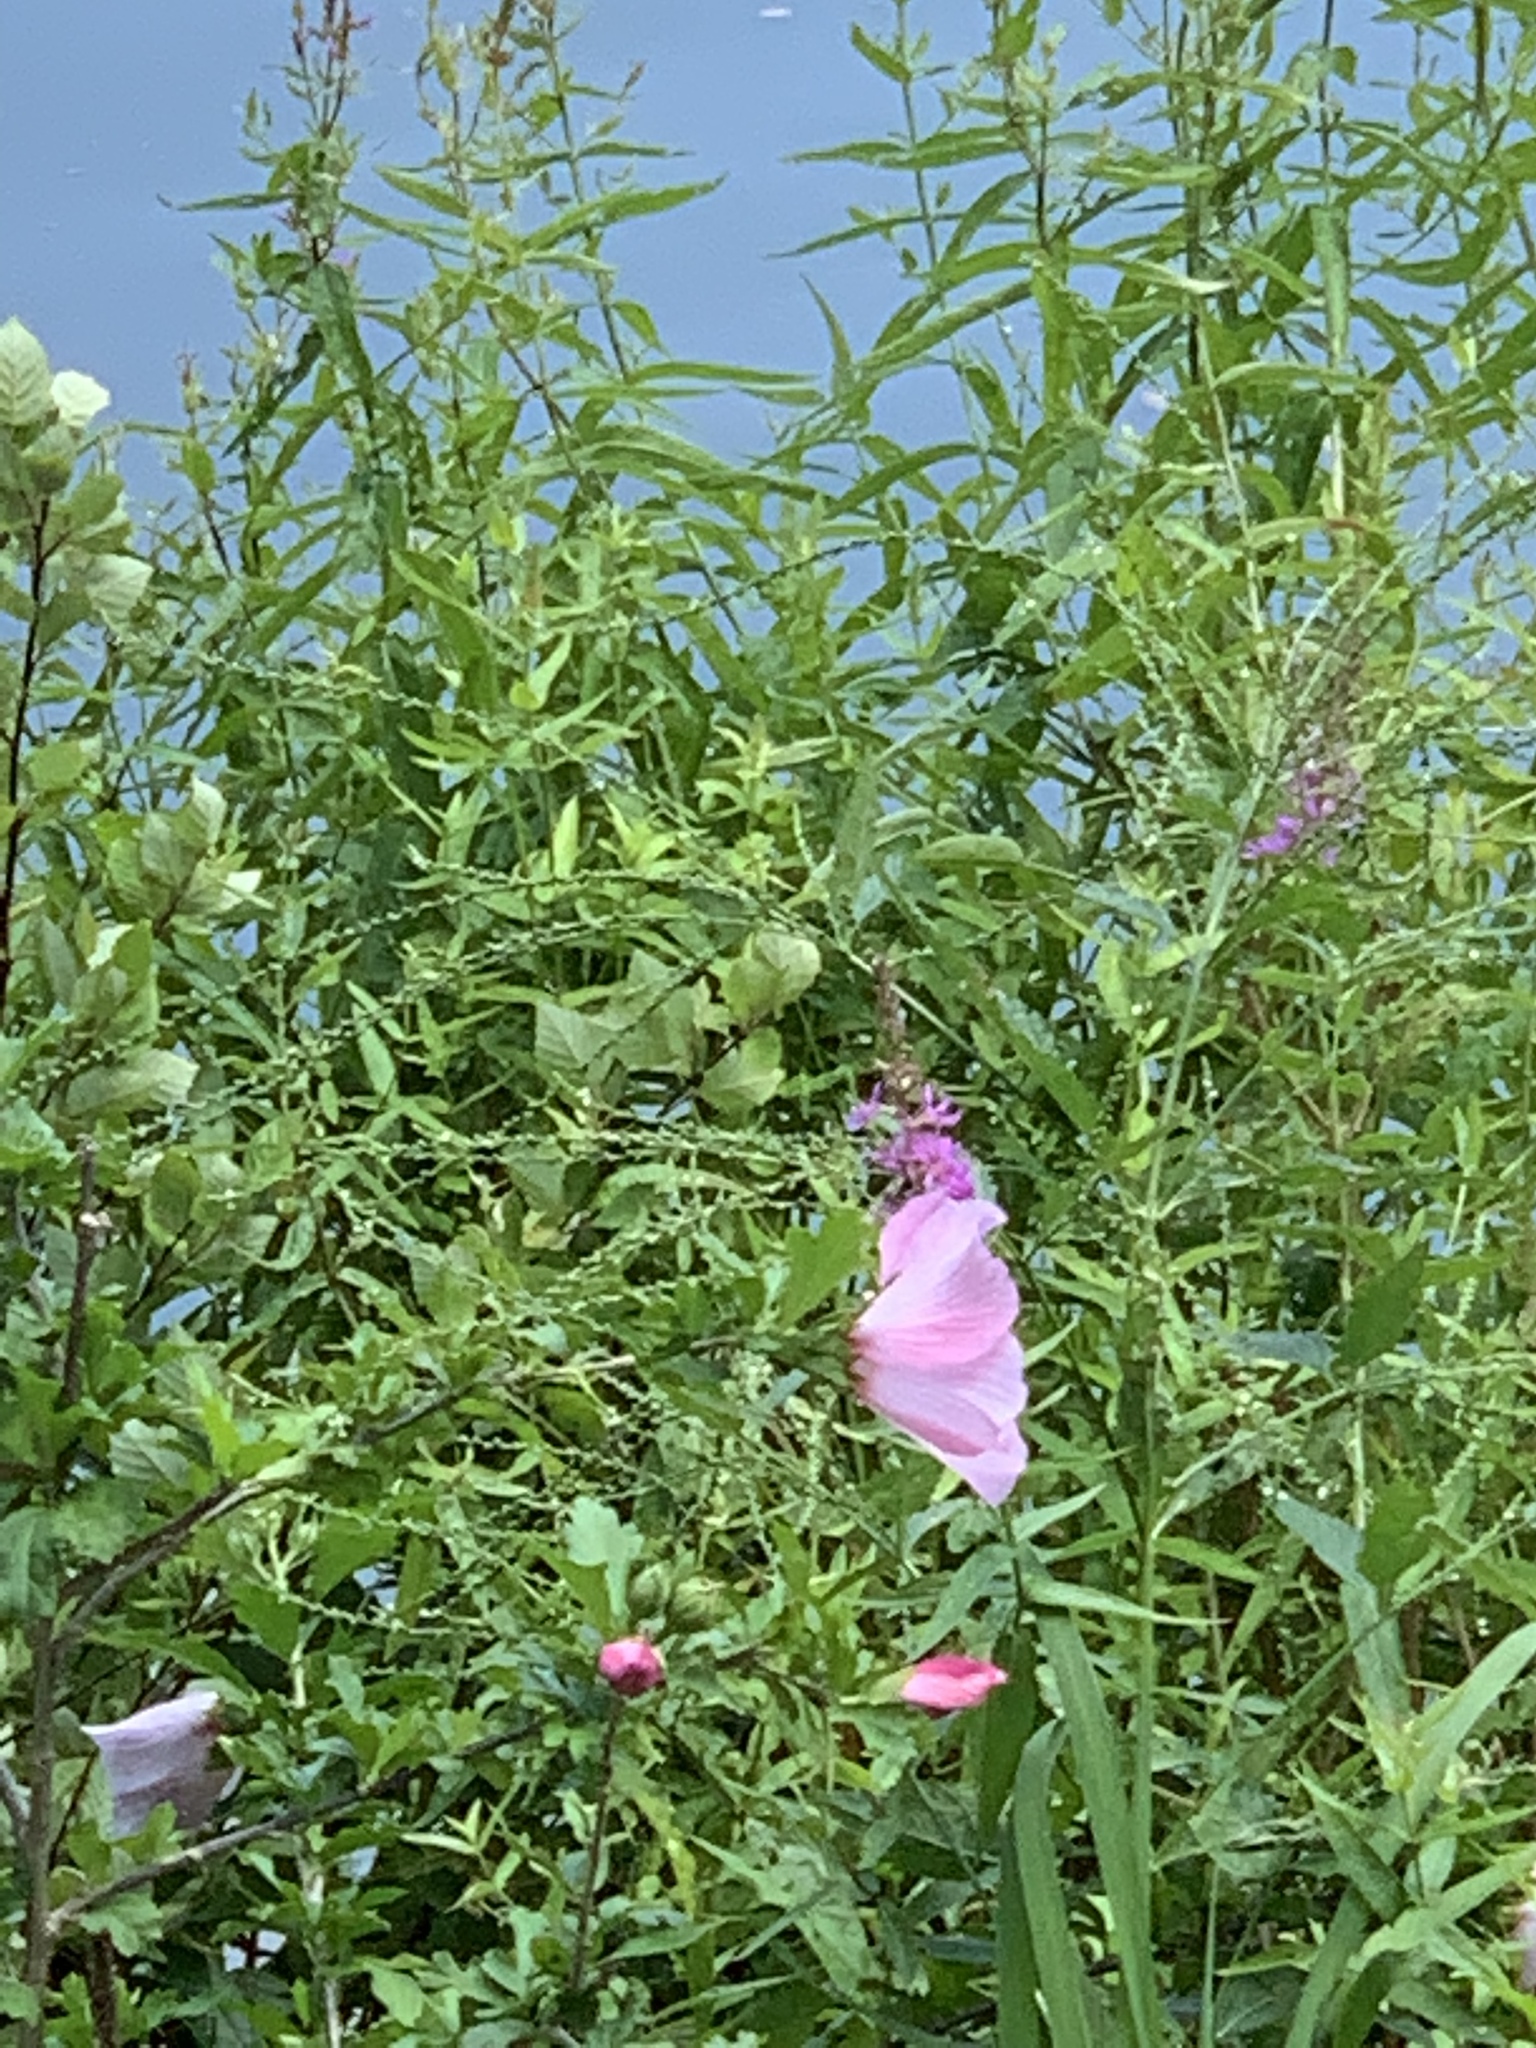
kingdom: Plantae
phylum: Tracheophyta
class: Magnoliopsida
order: Malvales
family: Malvaceae
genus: Hibiscus
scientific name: Hibiscus syriacus
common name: Syrian ketmia
